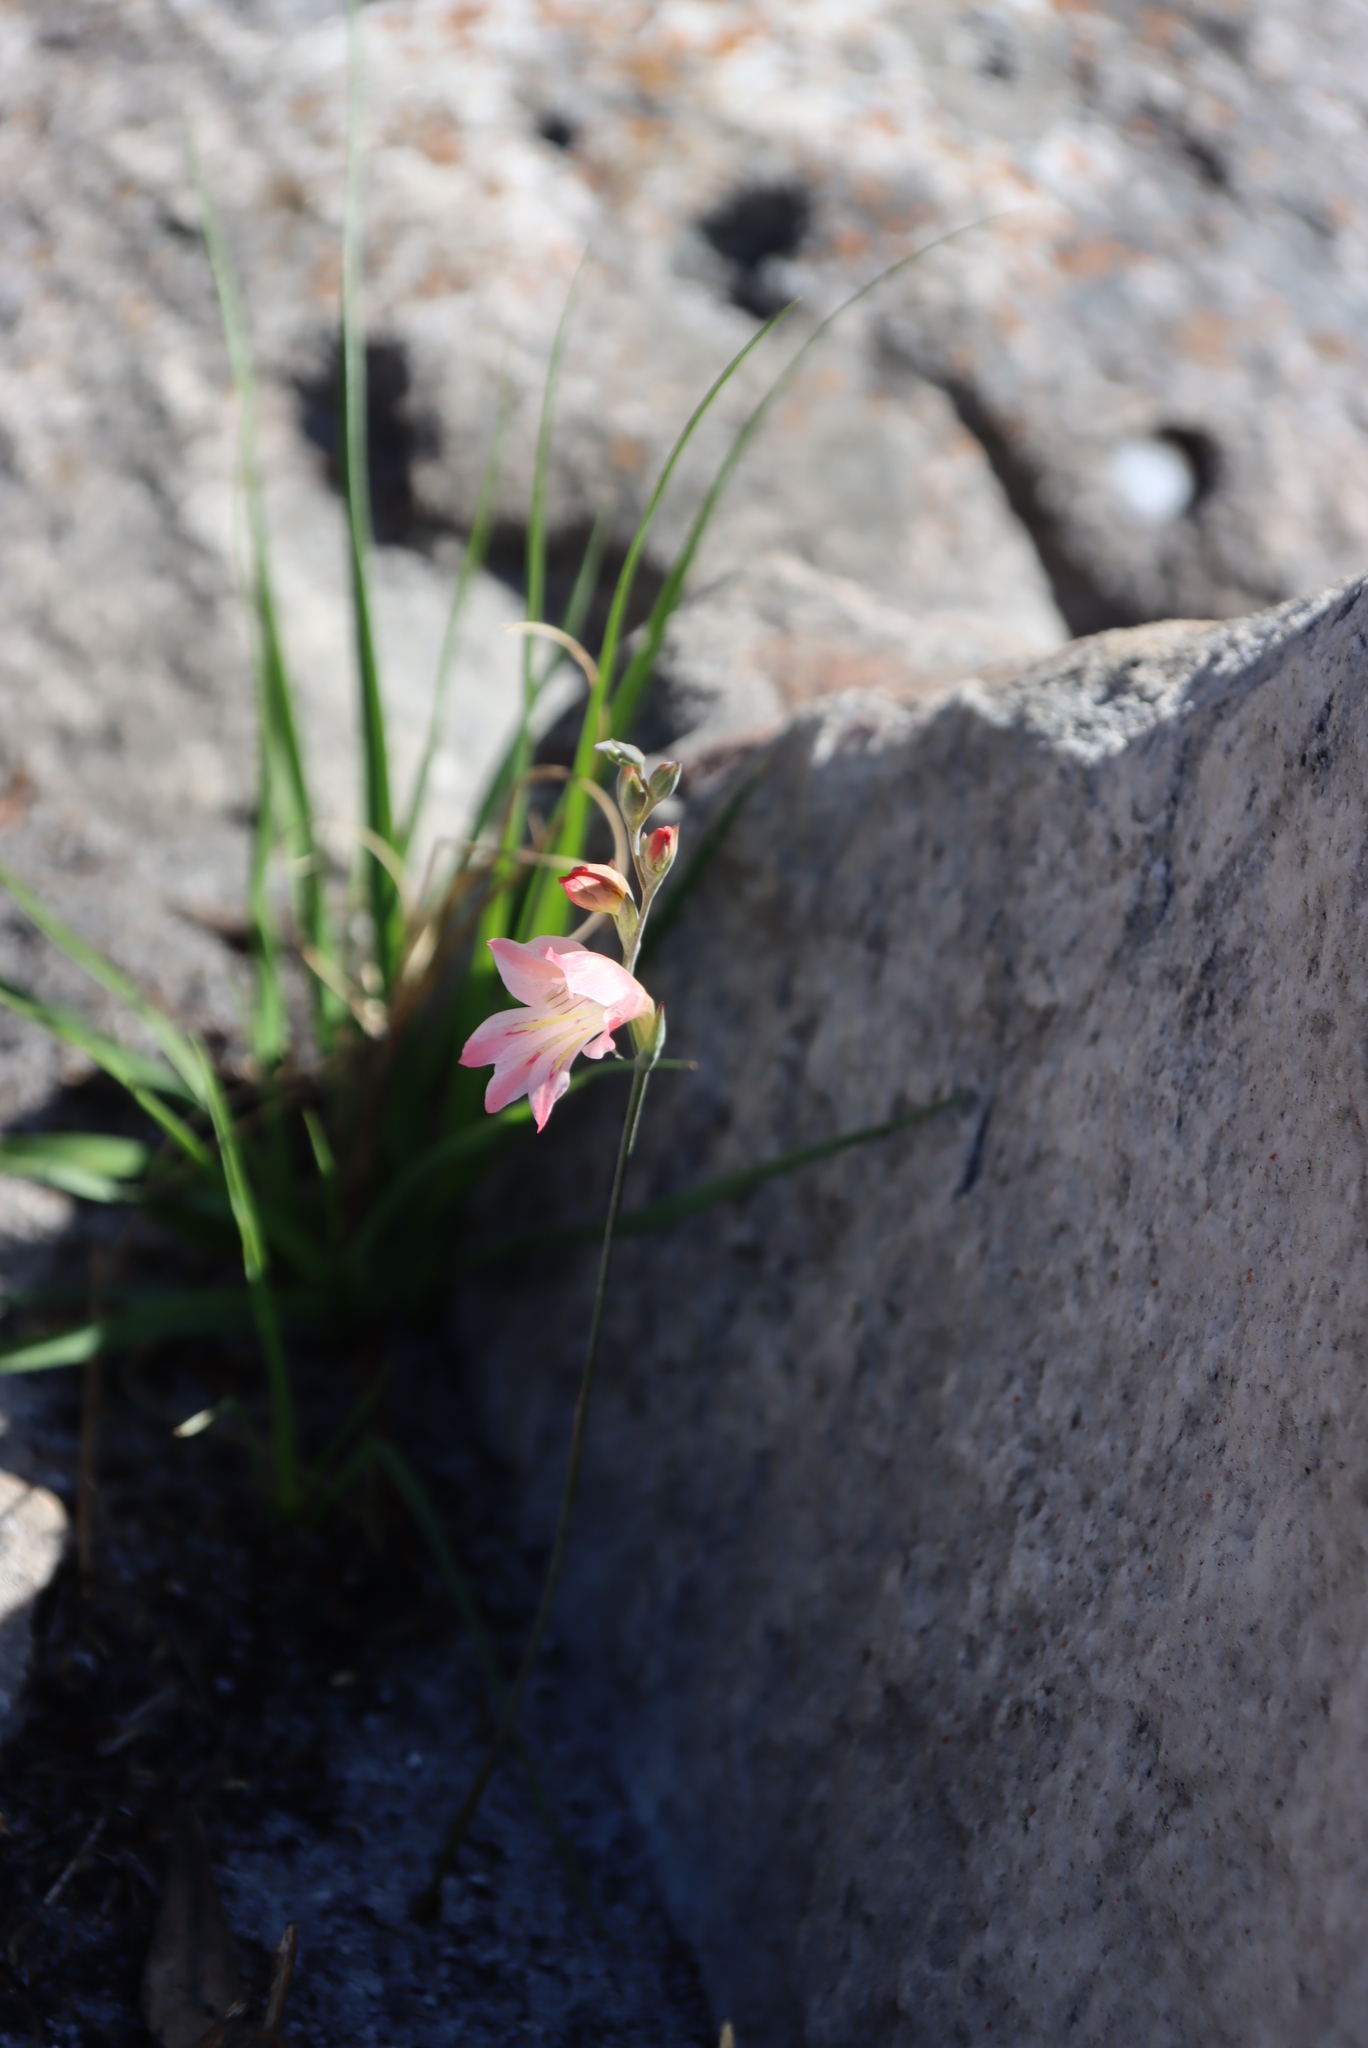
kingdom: Plantae
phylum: Tracheophyta
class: Liliopsida
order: Asparagales
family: Iridaceae
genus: Gladiolus
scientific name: Gladiolus brevifolius
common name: March pypie
